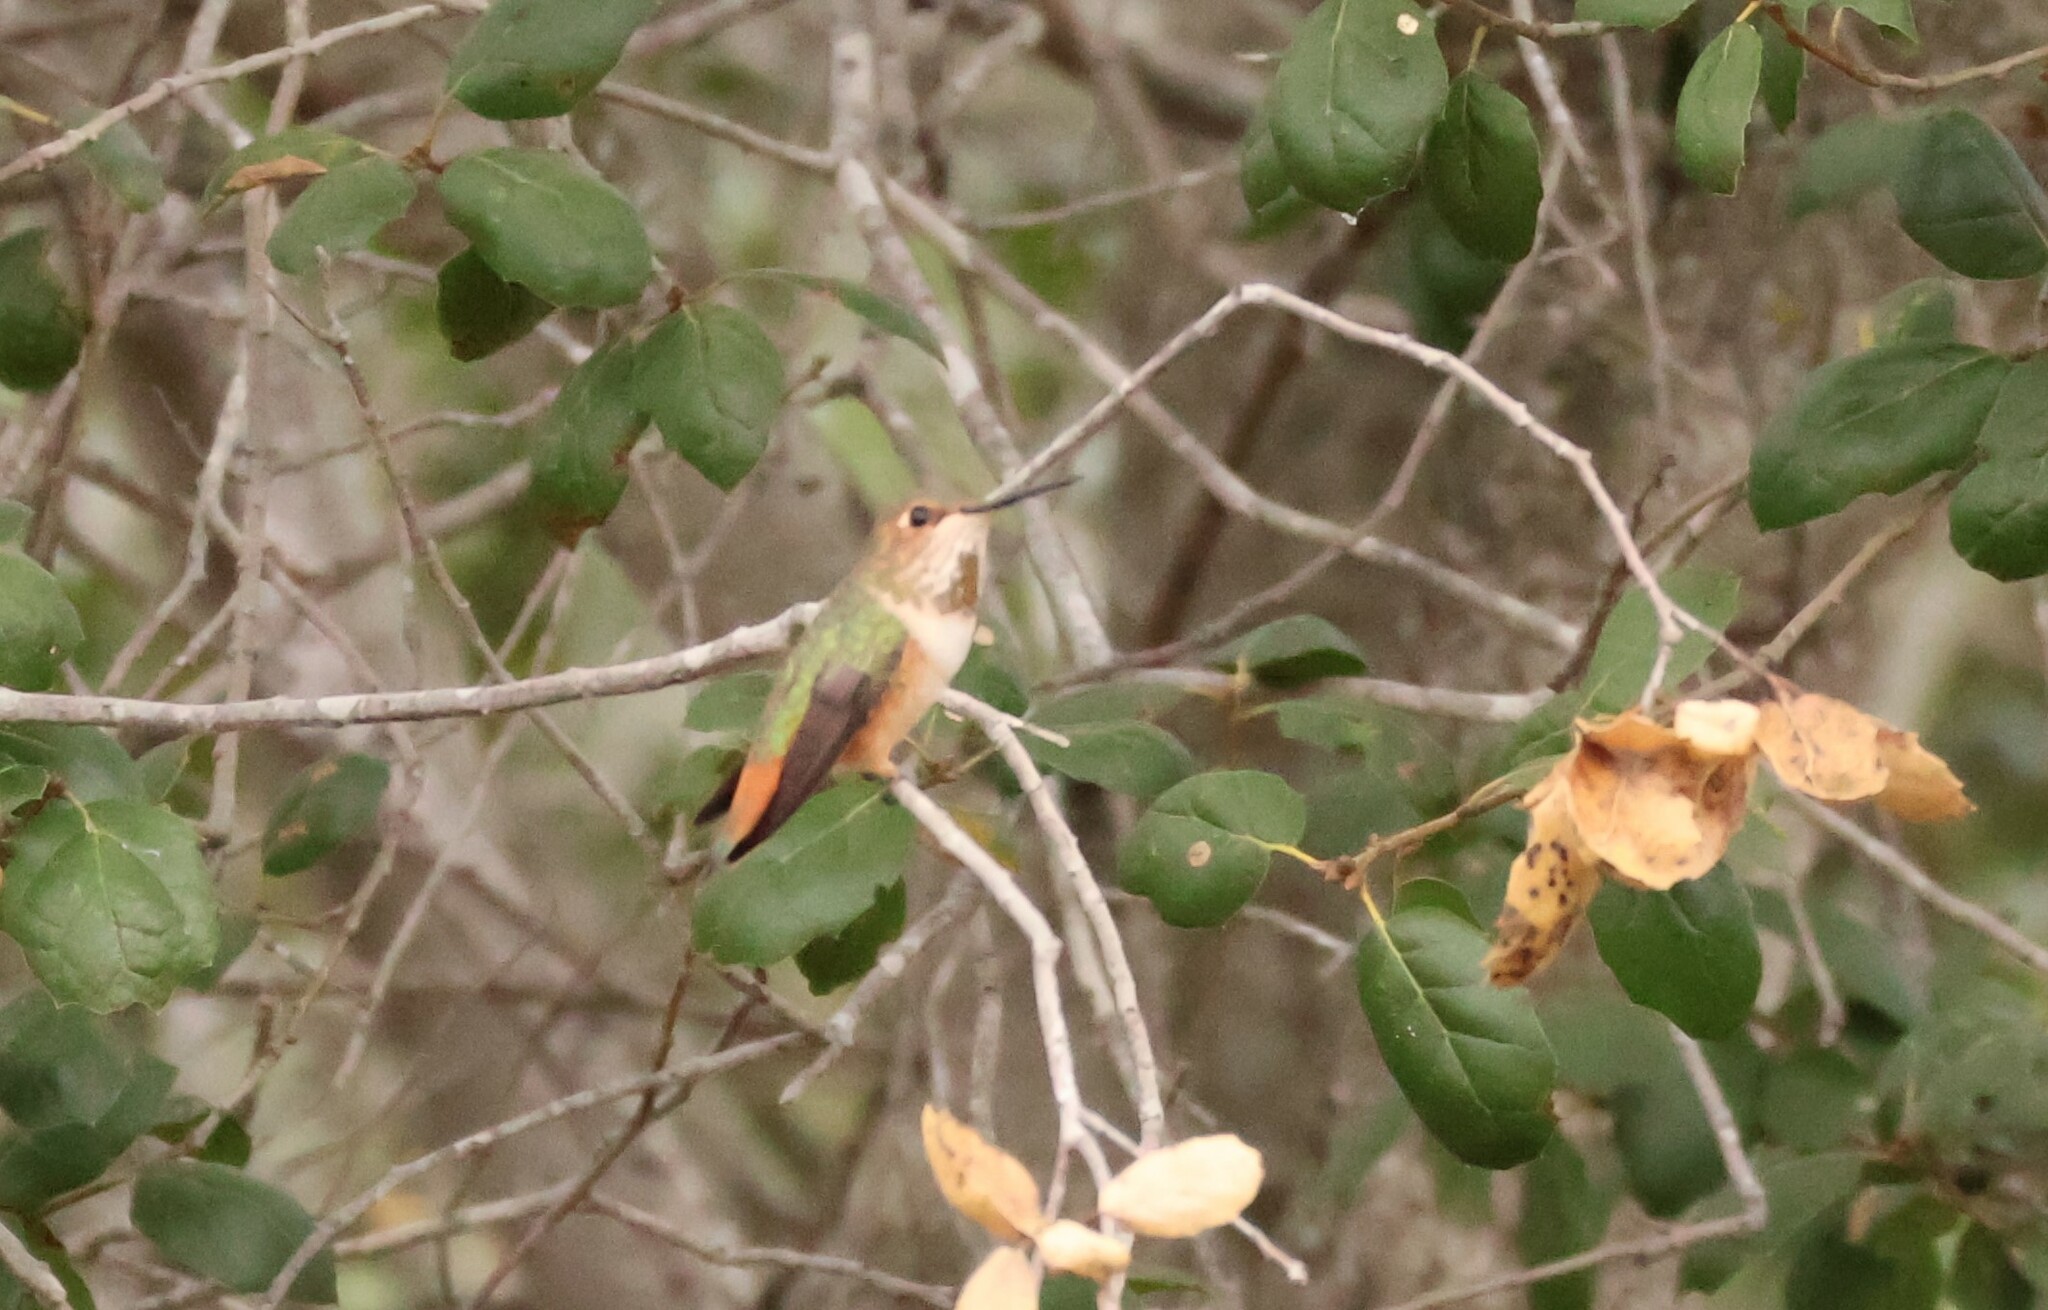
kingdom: Animalia
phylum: Chordata
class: Aves
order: Apodiformes
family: Trochilidae
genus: Selasphorus
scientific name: Selasphorus sasin
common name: Allen's hummingbird
